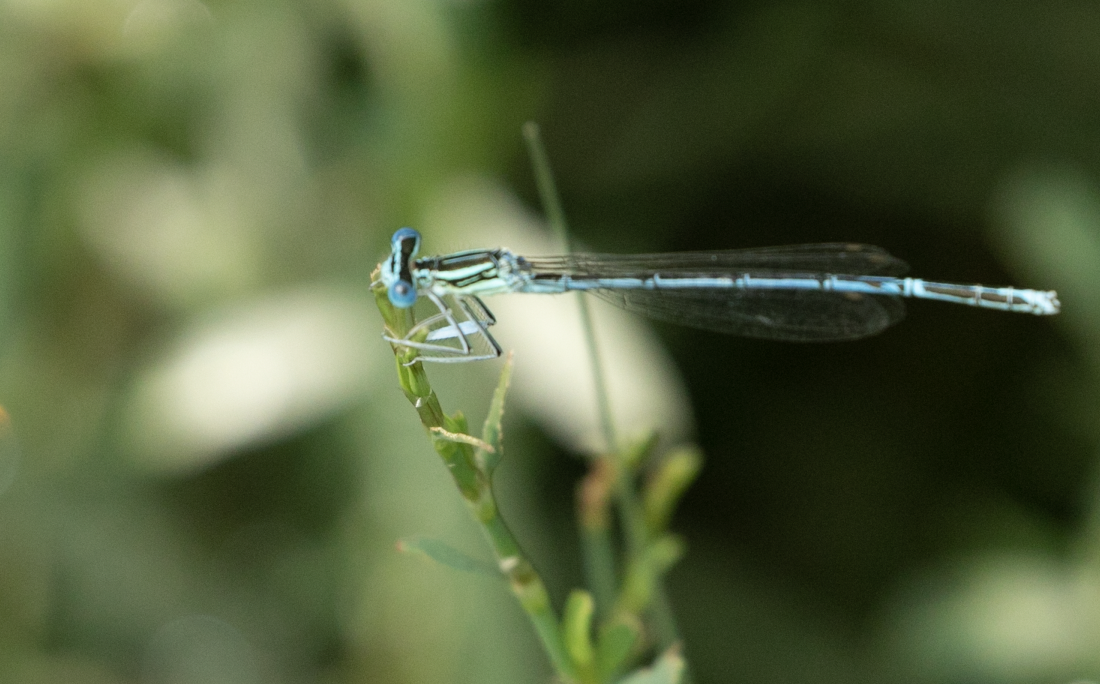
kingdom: Animalia
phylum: Arthropoda
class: Insecta
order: Odonata
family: Platycnemididae
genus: Platycnemis
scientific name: Platycnemis pennipes
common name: White-legged damselfly
